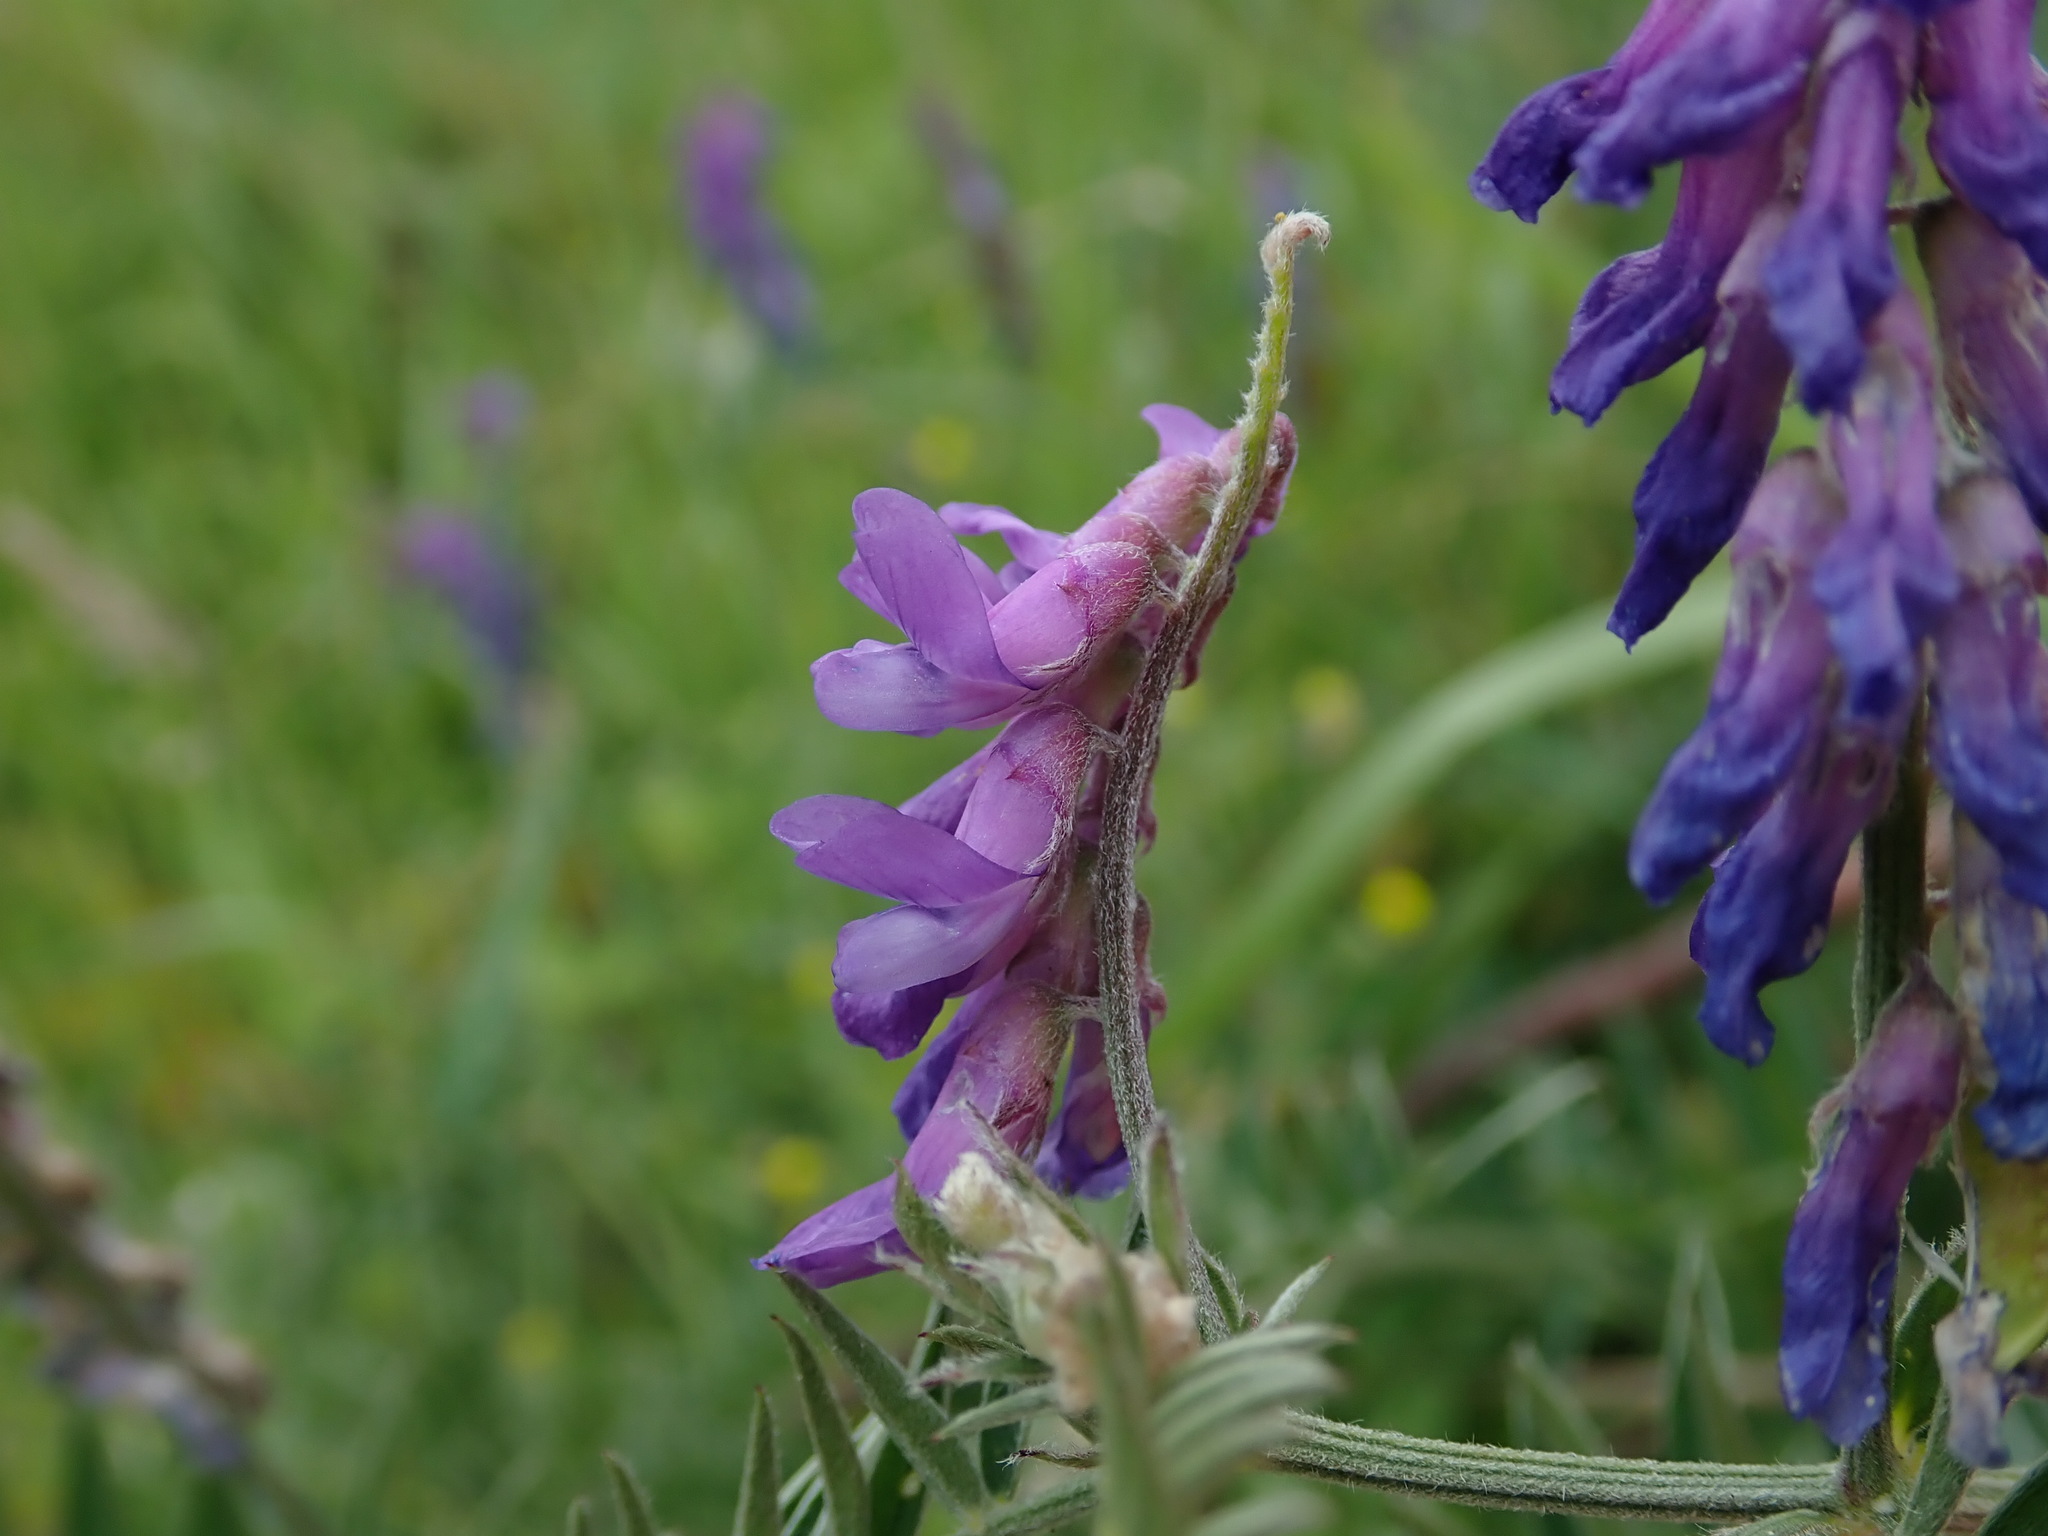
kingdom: Plantae
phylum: Tracheophyta
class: Magnoliopsida
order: Fabales
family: Fabaceae
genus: Vicia
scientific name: Vicia cracca
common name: Bird vetch
